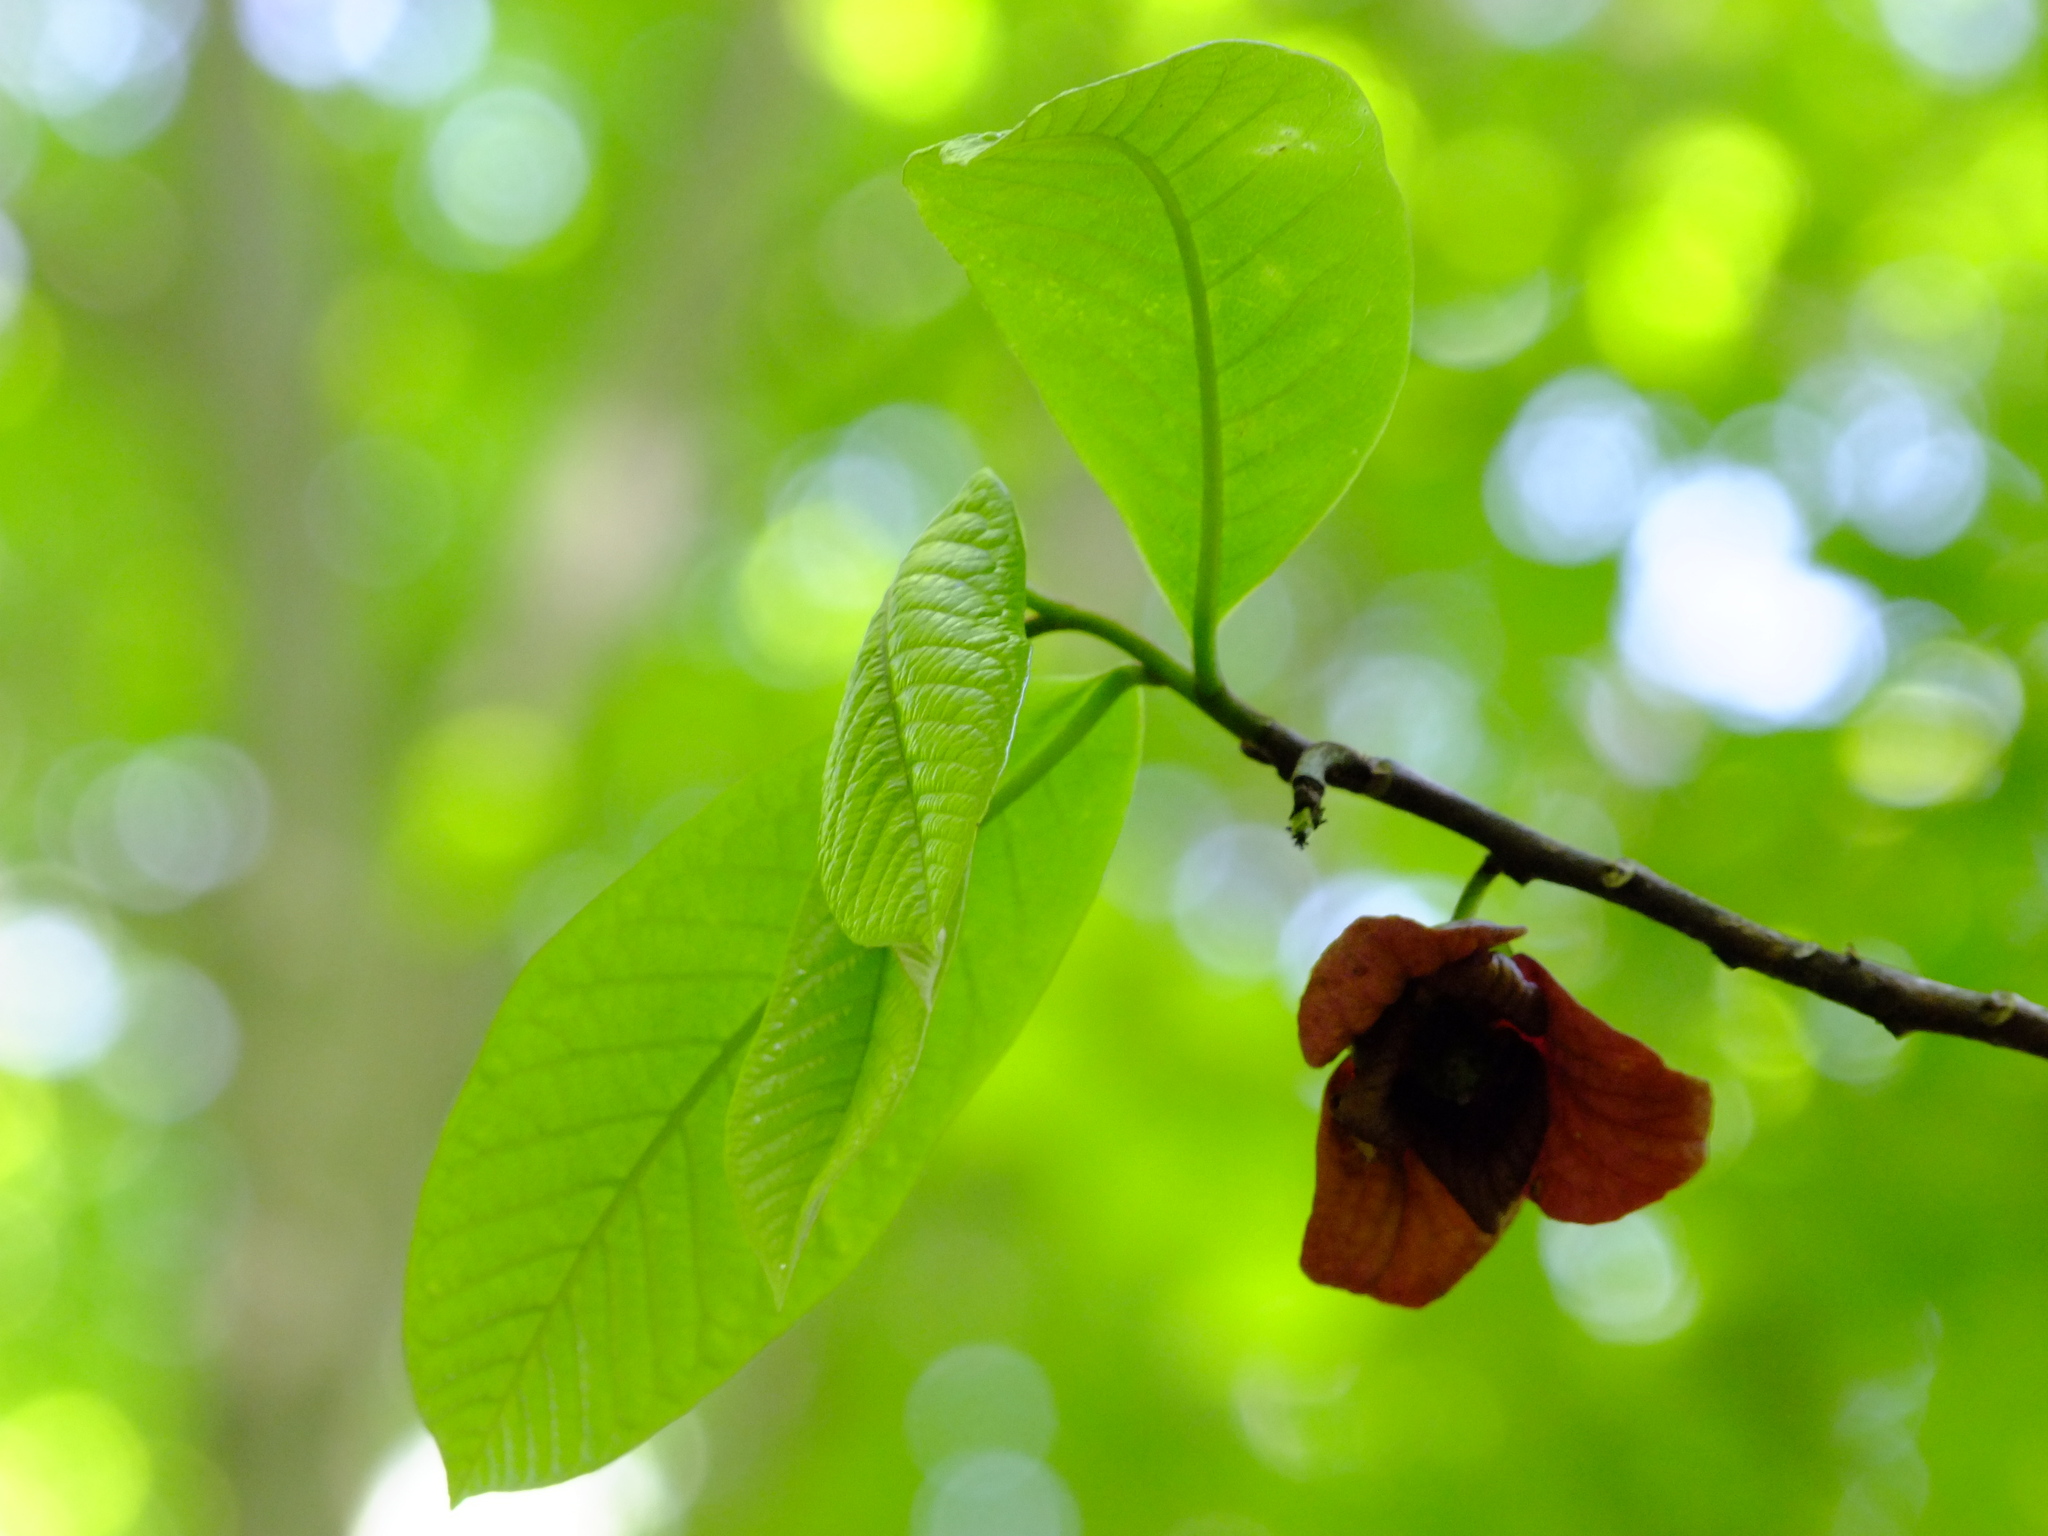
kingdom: Plantae
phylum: Tracheophyta
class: Magnoliopsida
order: Magnoliales
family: Annonaceae
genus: Asimina
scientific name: Asimina triloba
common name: Dog-banana
